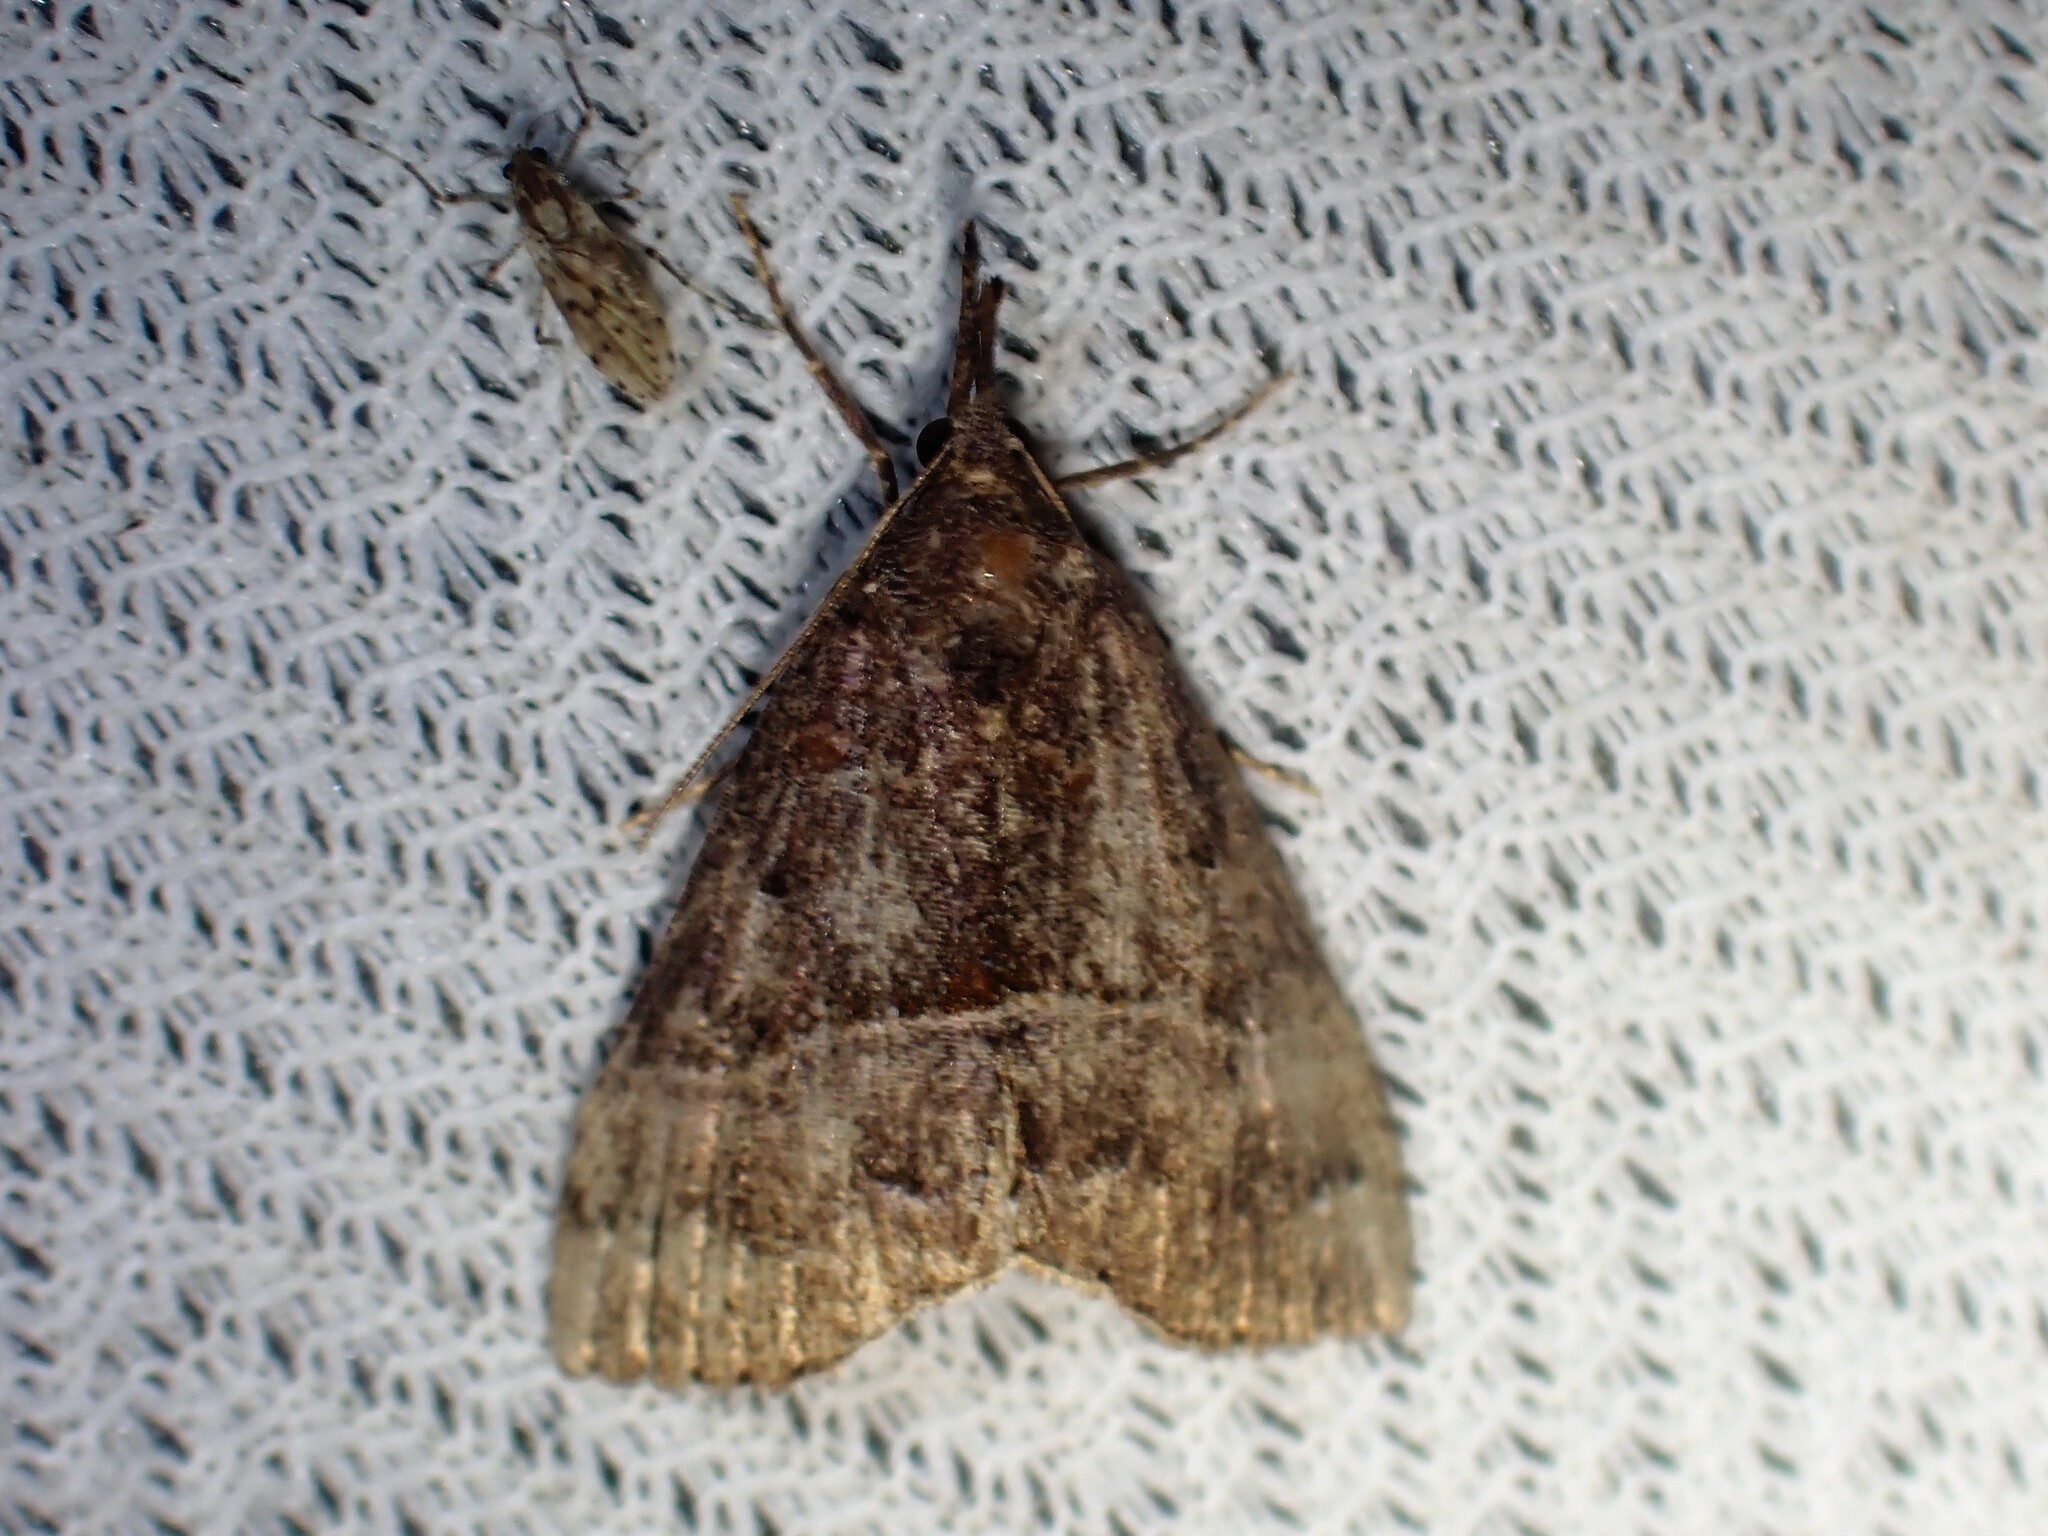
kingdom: Animalia
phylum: Arthropoda
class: Insecta
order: Lepidoptera
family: Erebidae
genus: Hypena
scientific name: Hypena eductalis
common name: Red-footed snout
